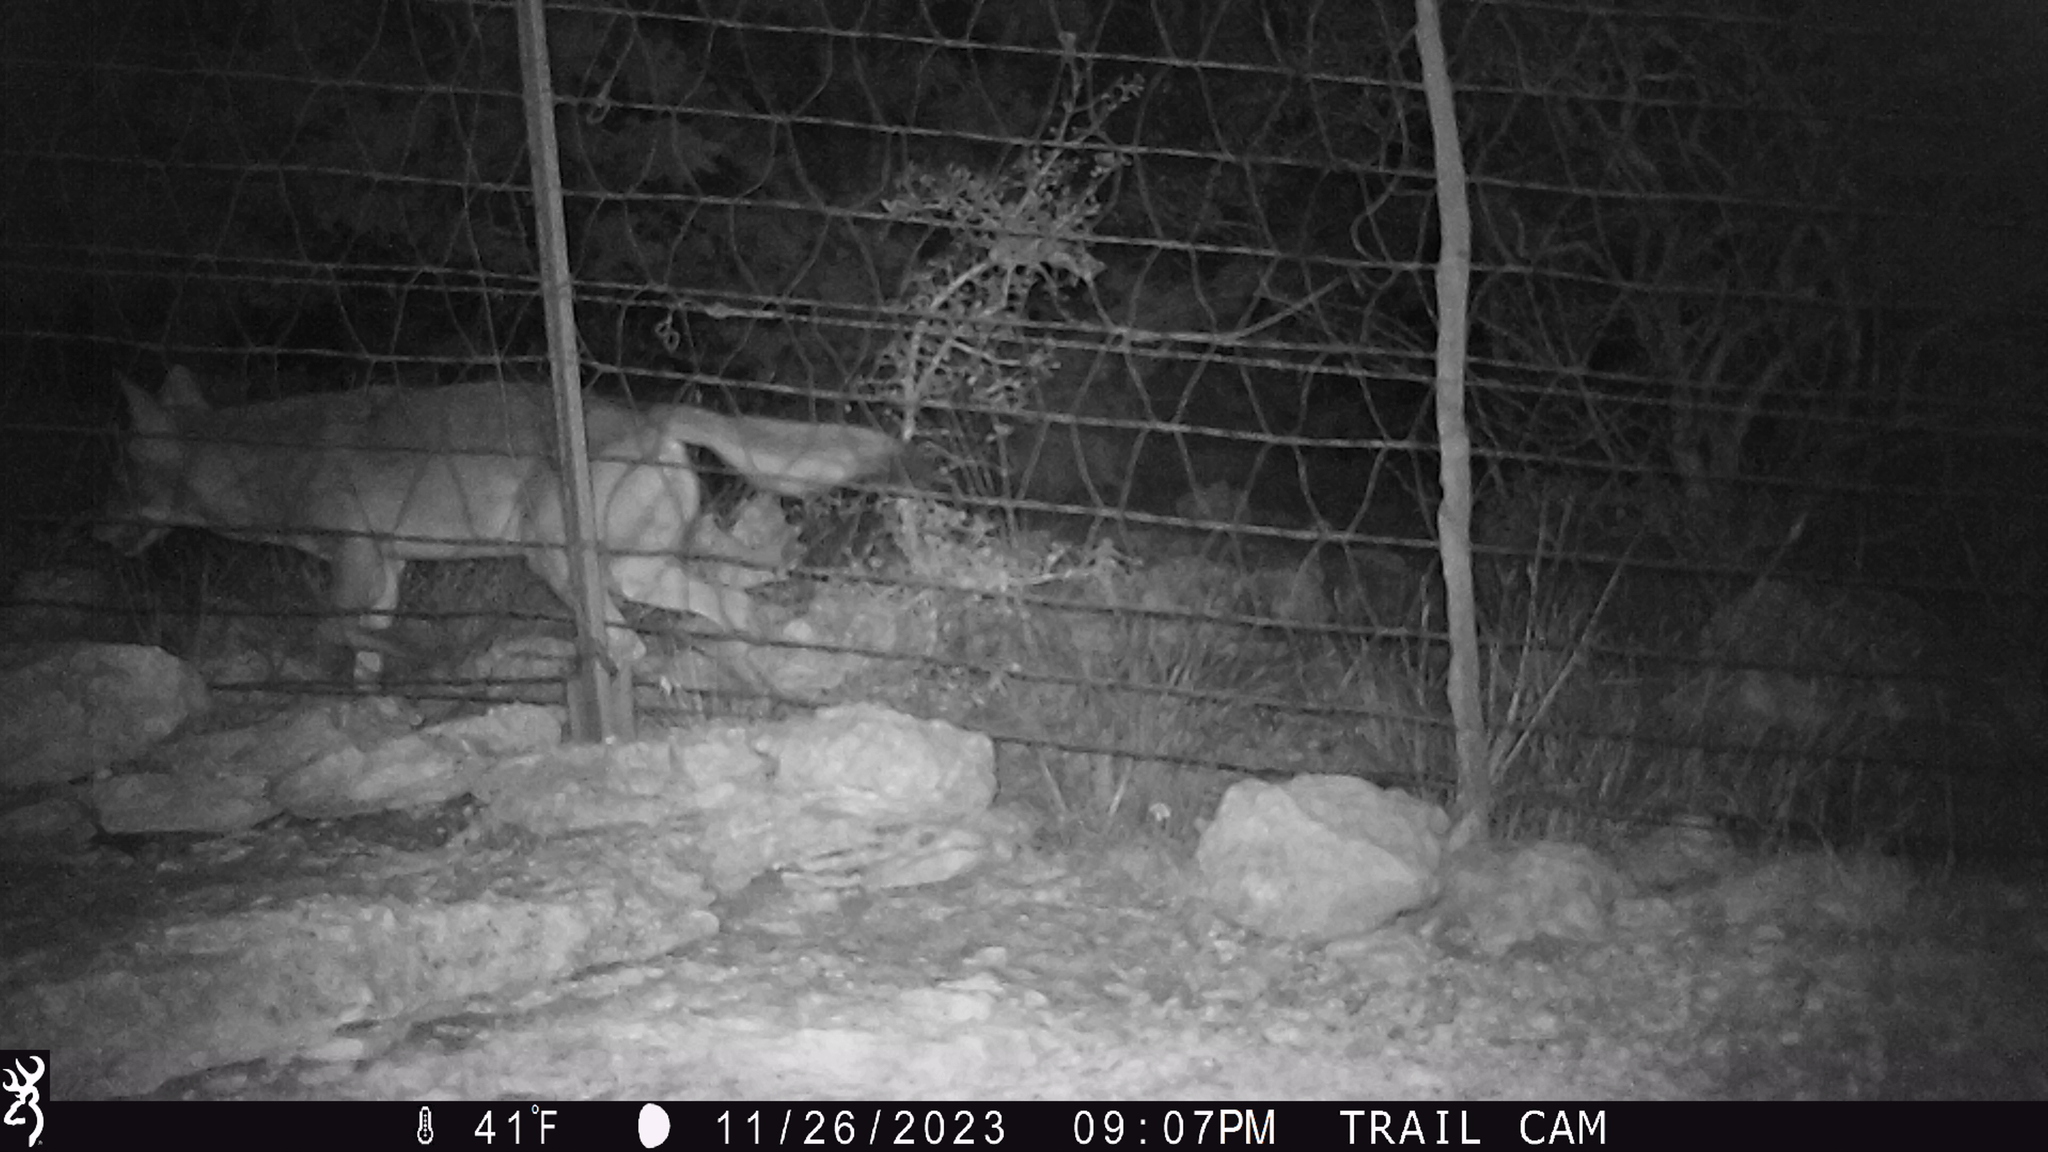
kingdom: Animalia
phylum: Chordata
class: Mammalia
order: Carnivora
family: Canidae
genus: Canis
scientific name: Canis latrans
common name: Coyote
